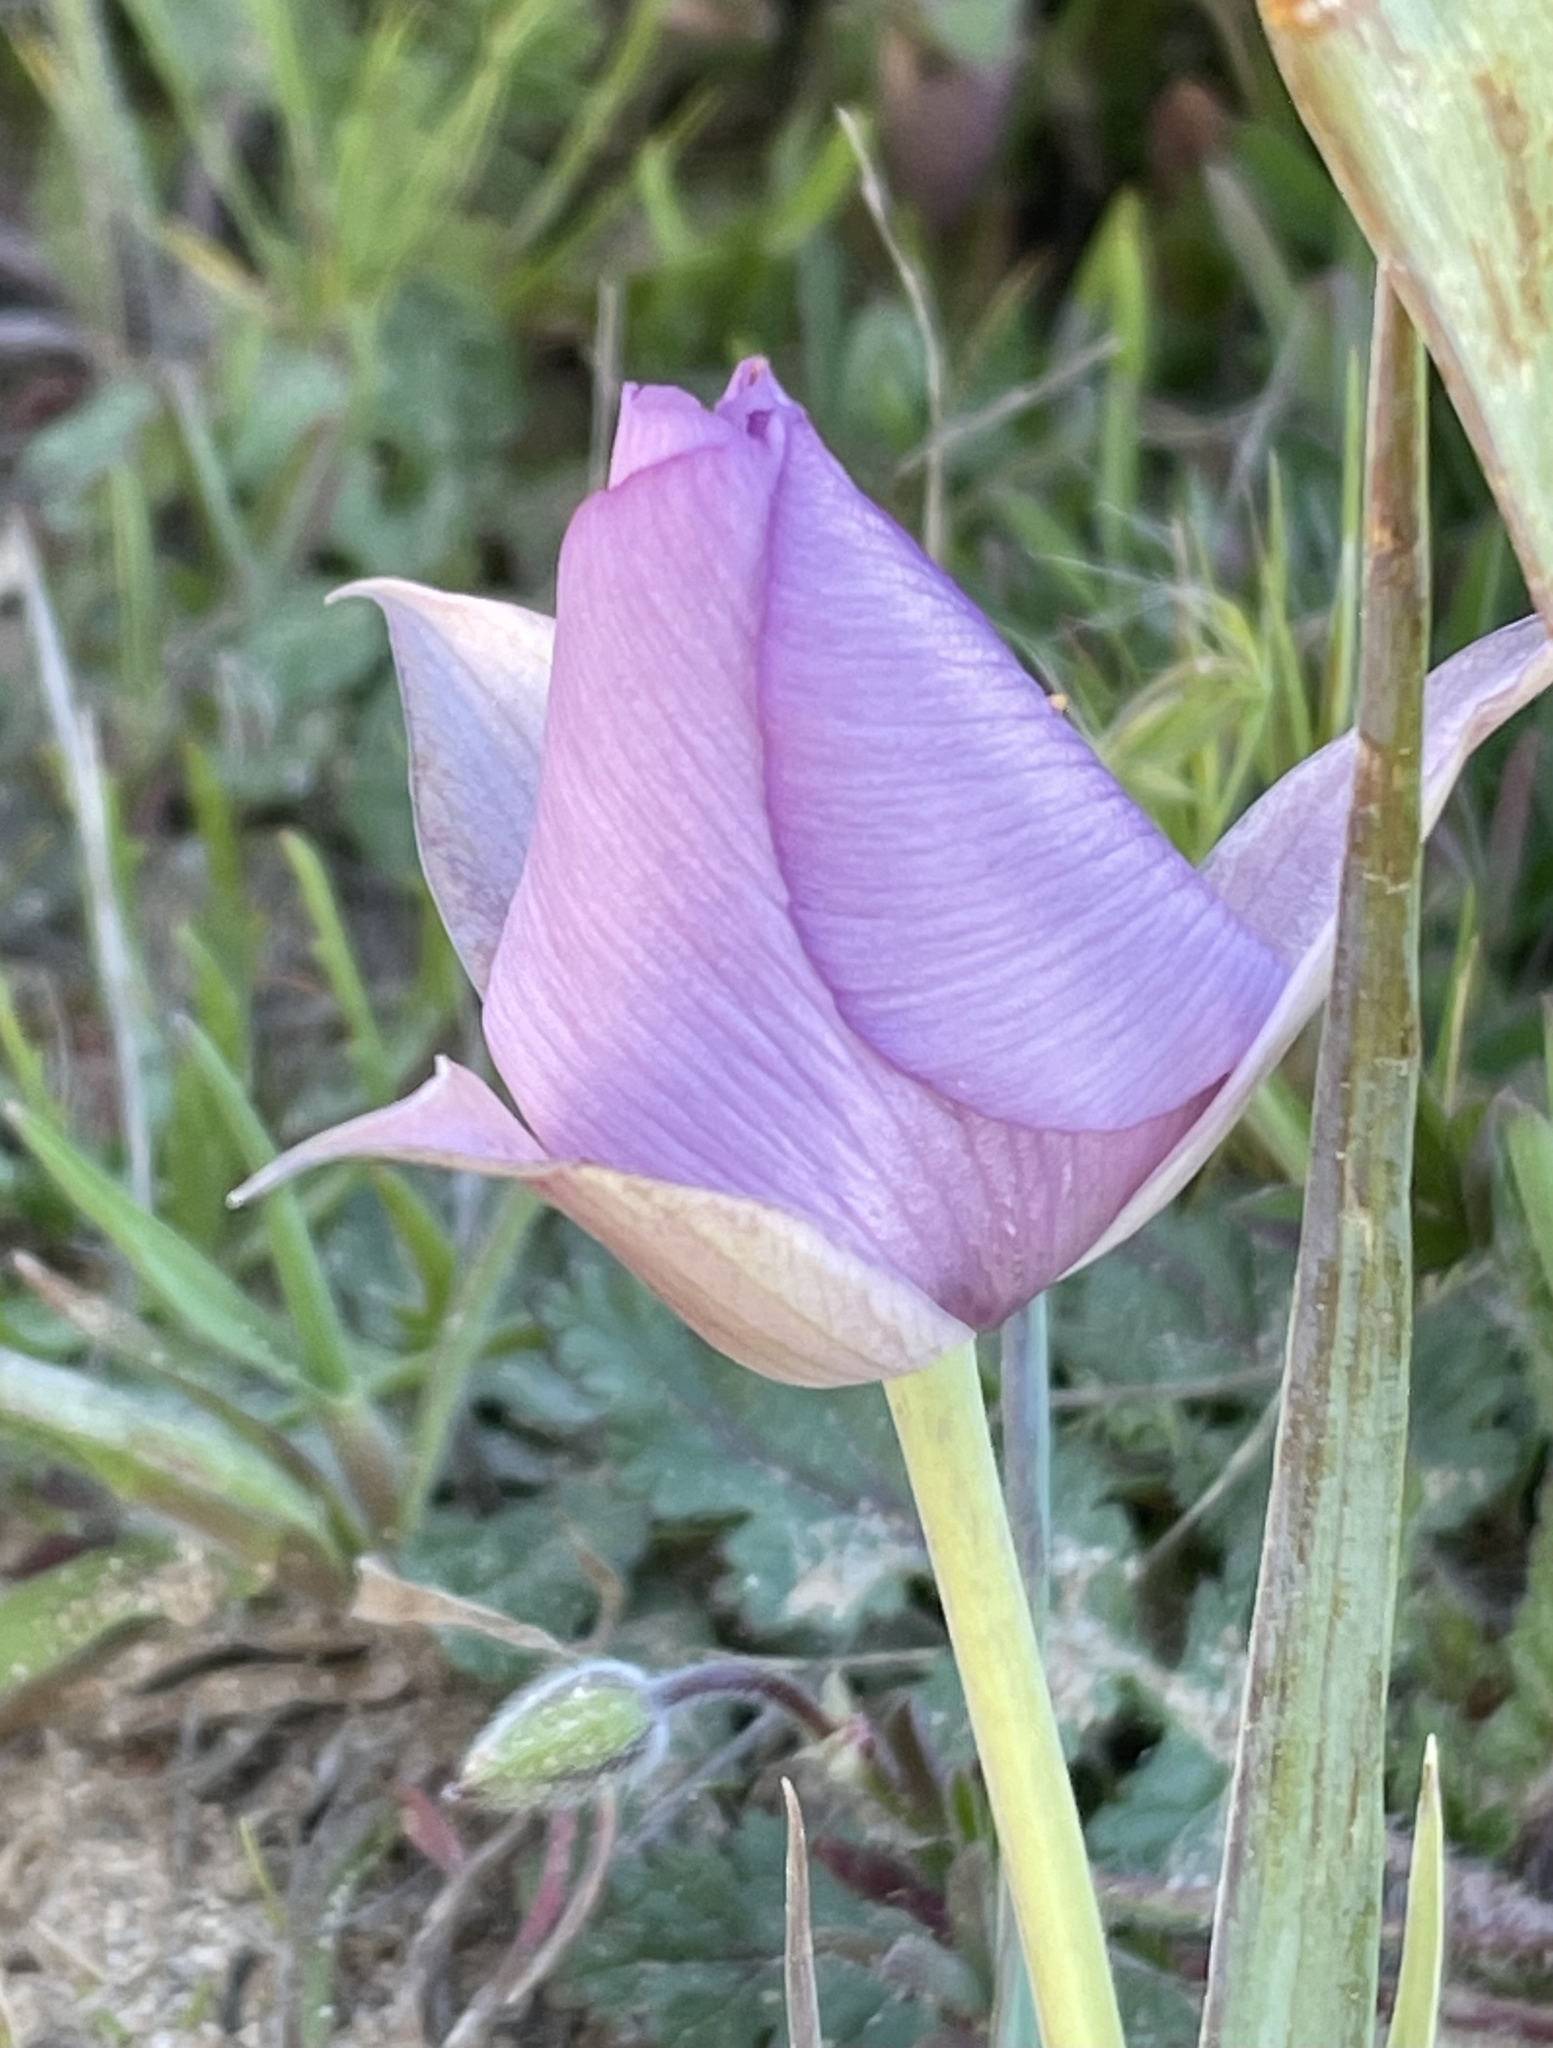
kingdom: Plantae
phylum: Tracheophyta
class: Liliopsida
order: Liliales
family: Liliaceae
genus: Calochortus
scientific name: Calochortus uniflorus
